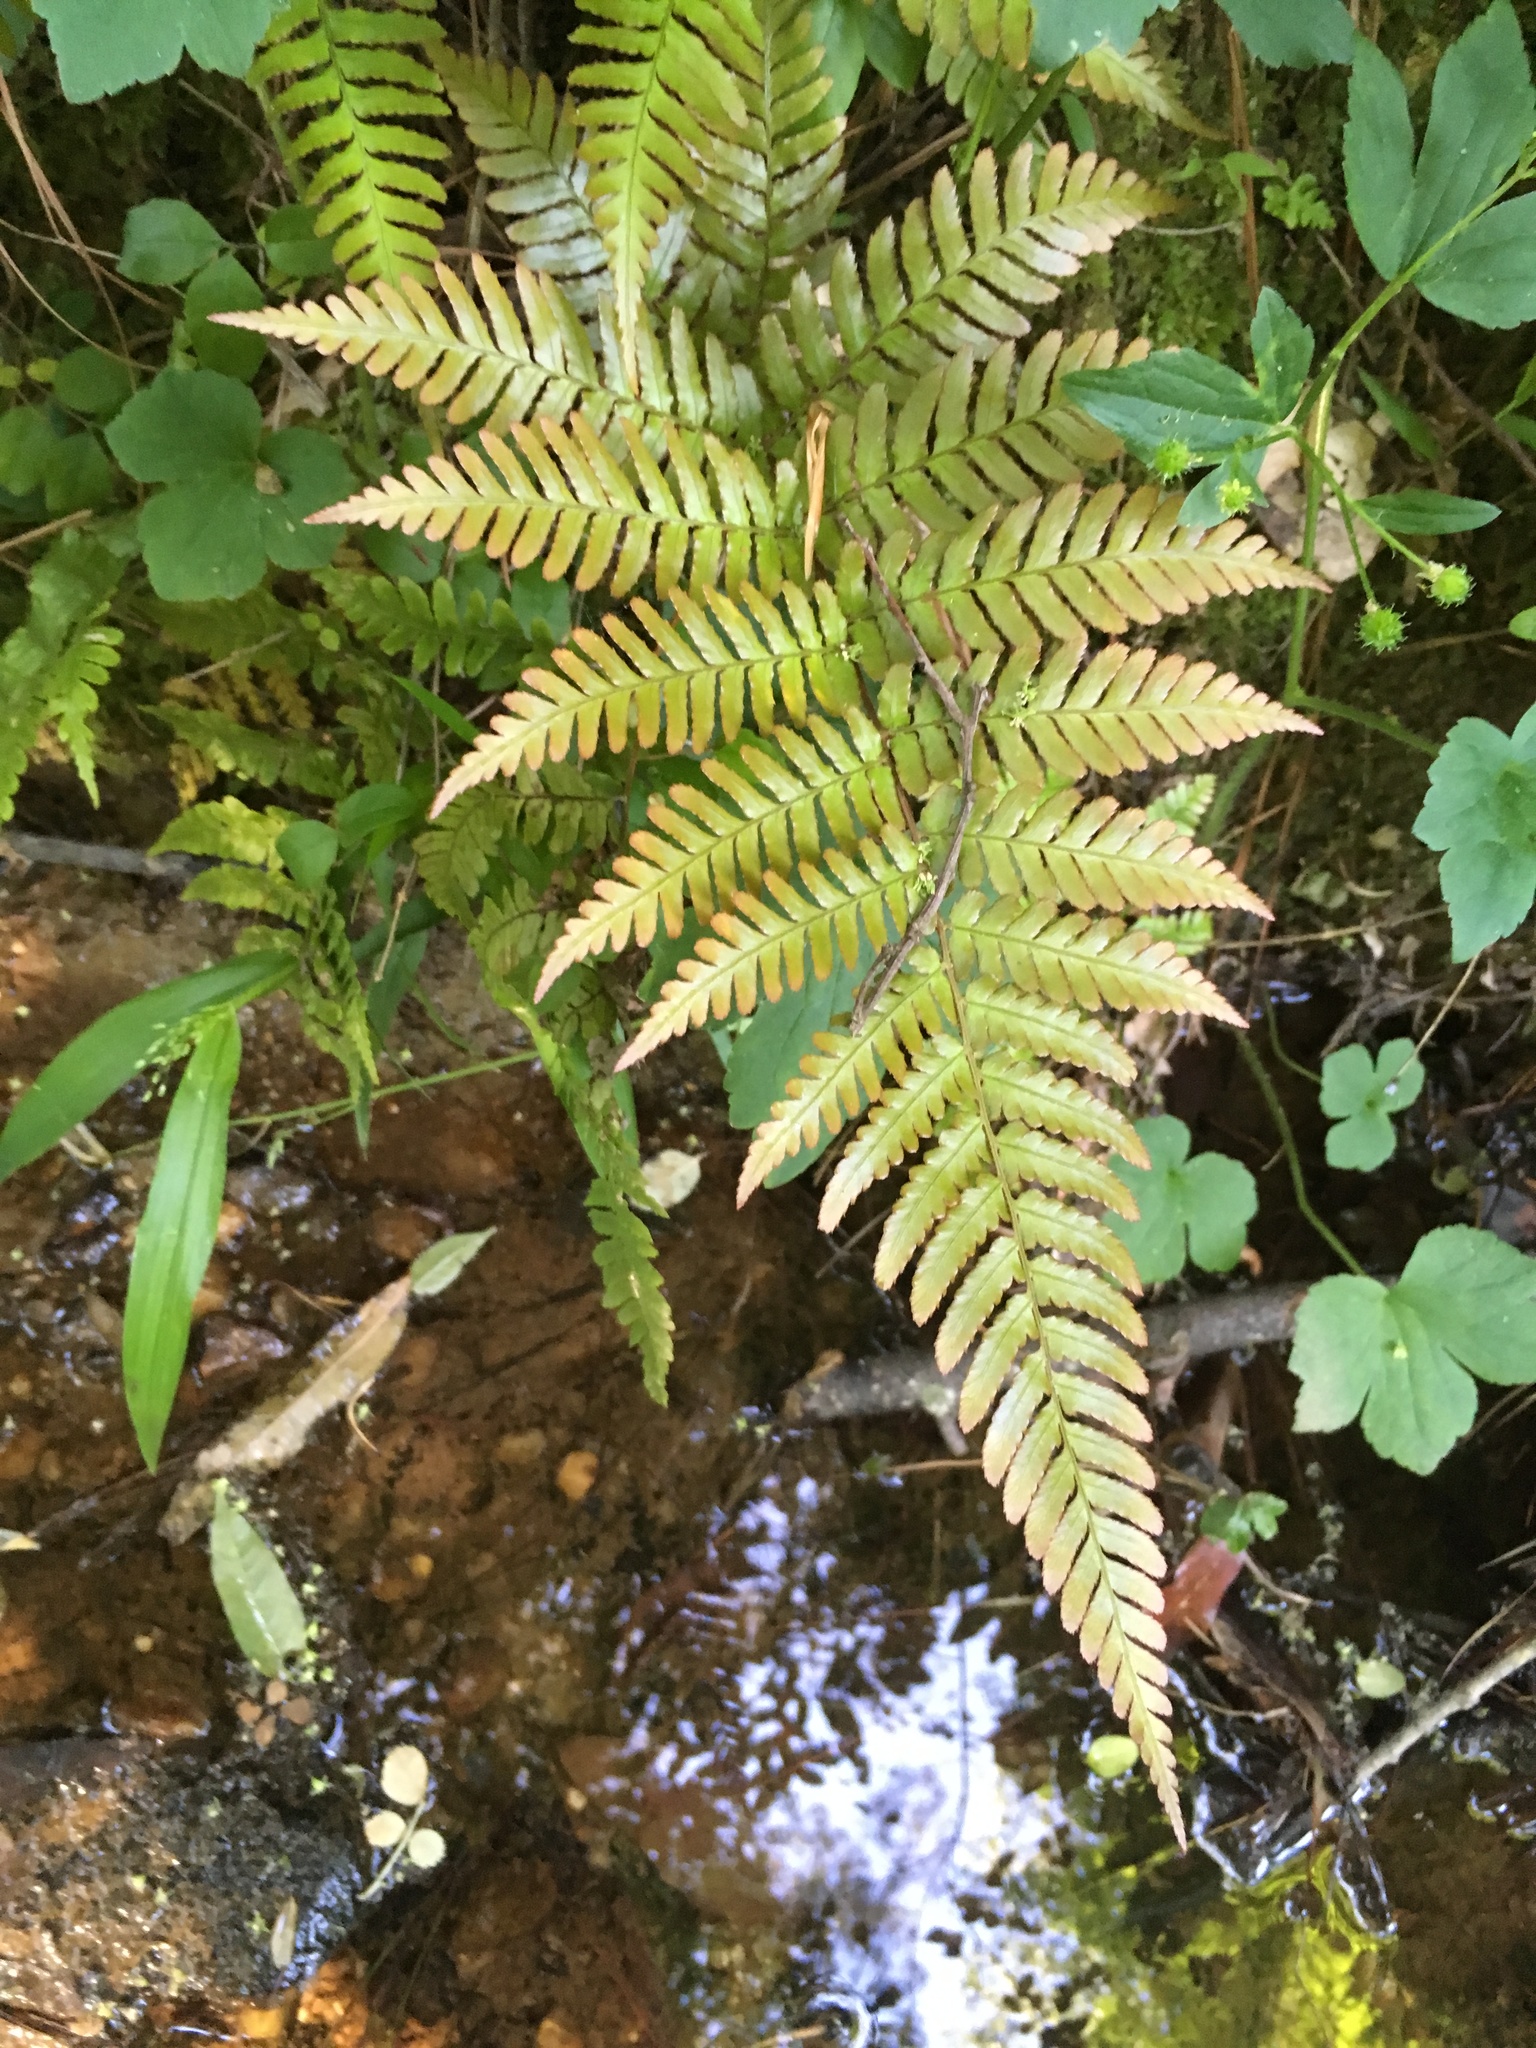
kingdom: Plantae
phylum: Tracheophyta
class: Polypodiopsida
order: Polypodiales
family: Dryopteridaceae
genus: Dryopteris
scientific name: Dryopteris erythrosora
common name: Autumn fern
